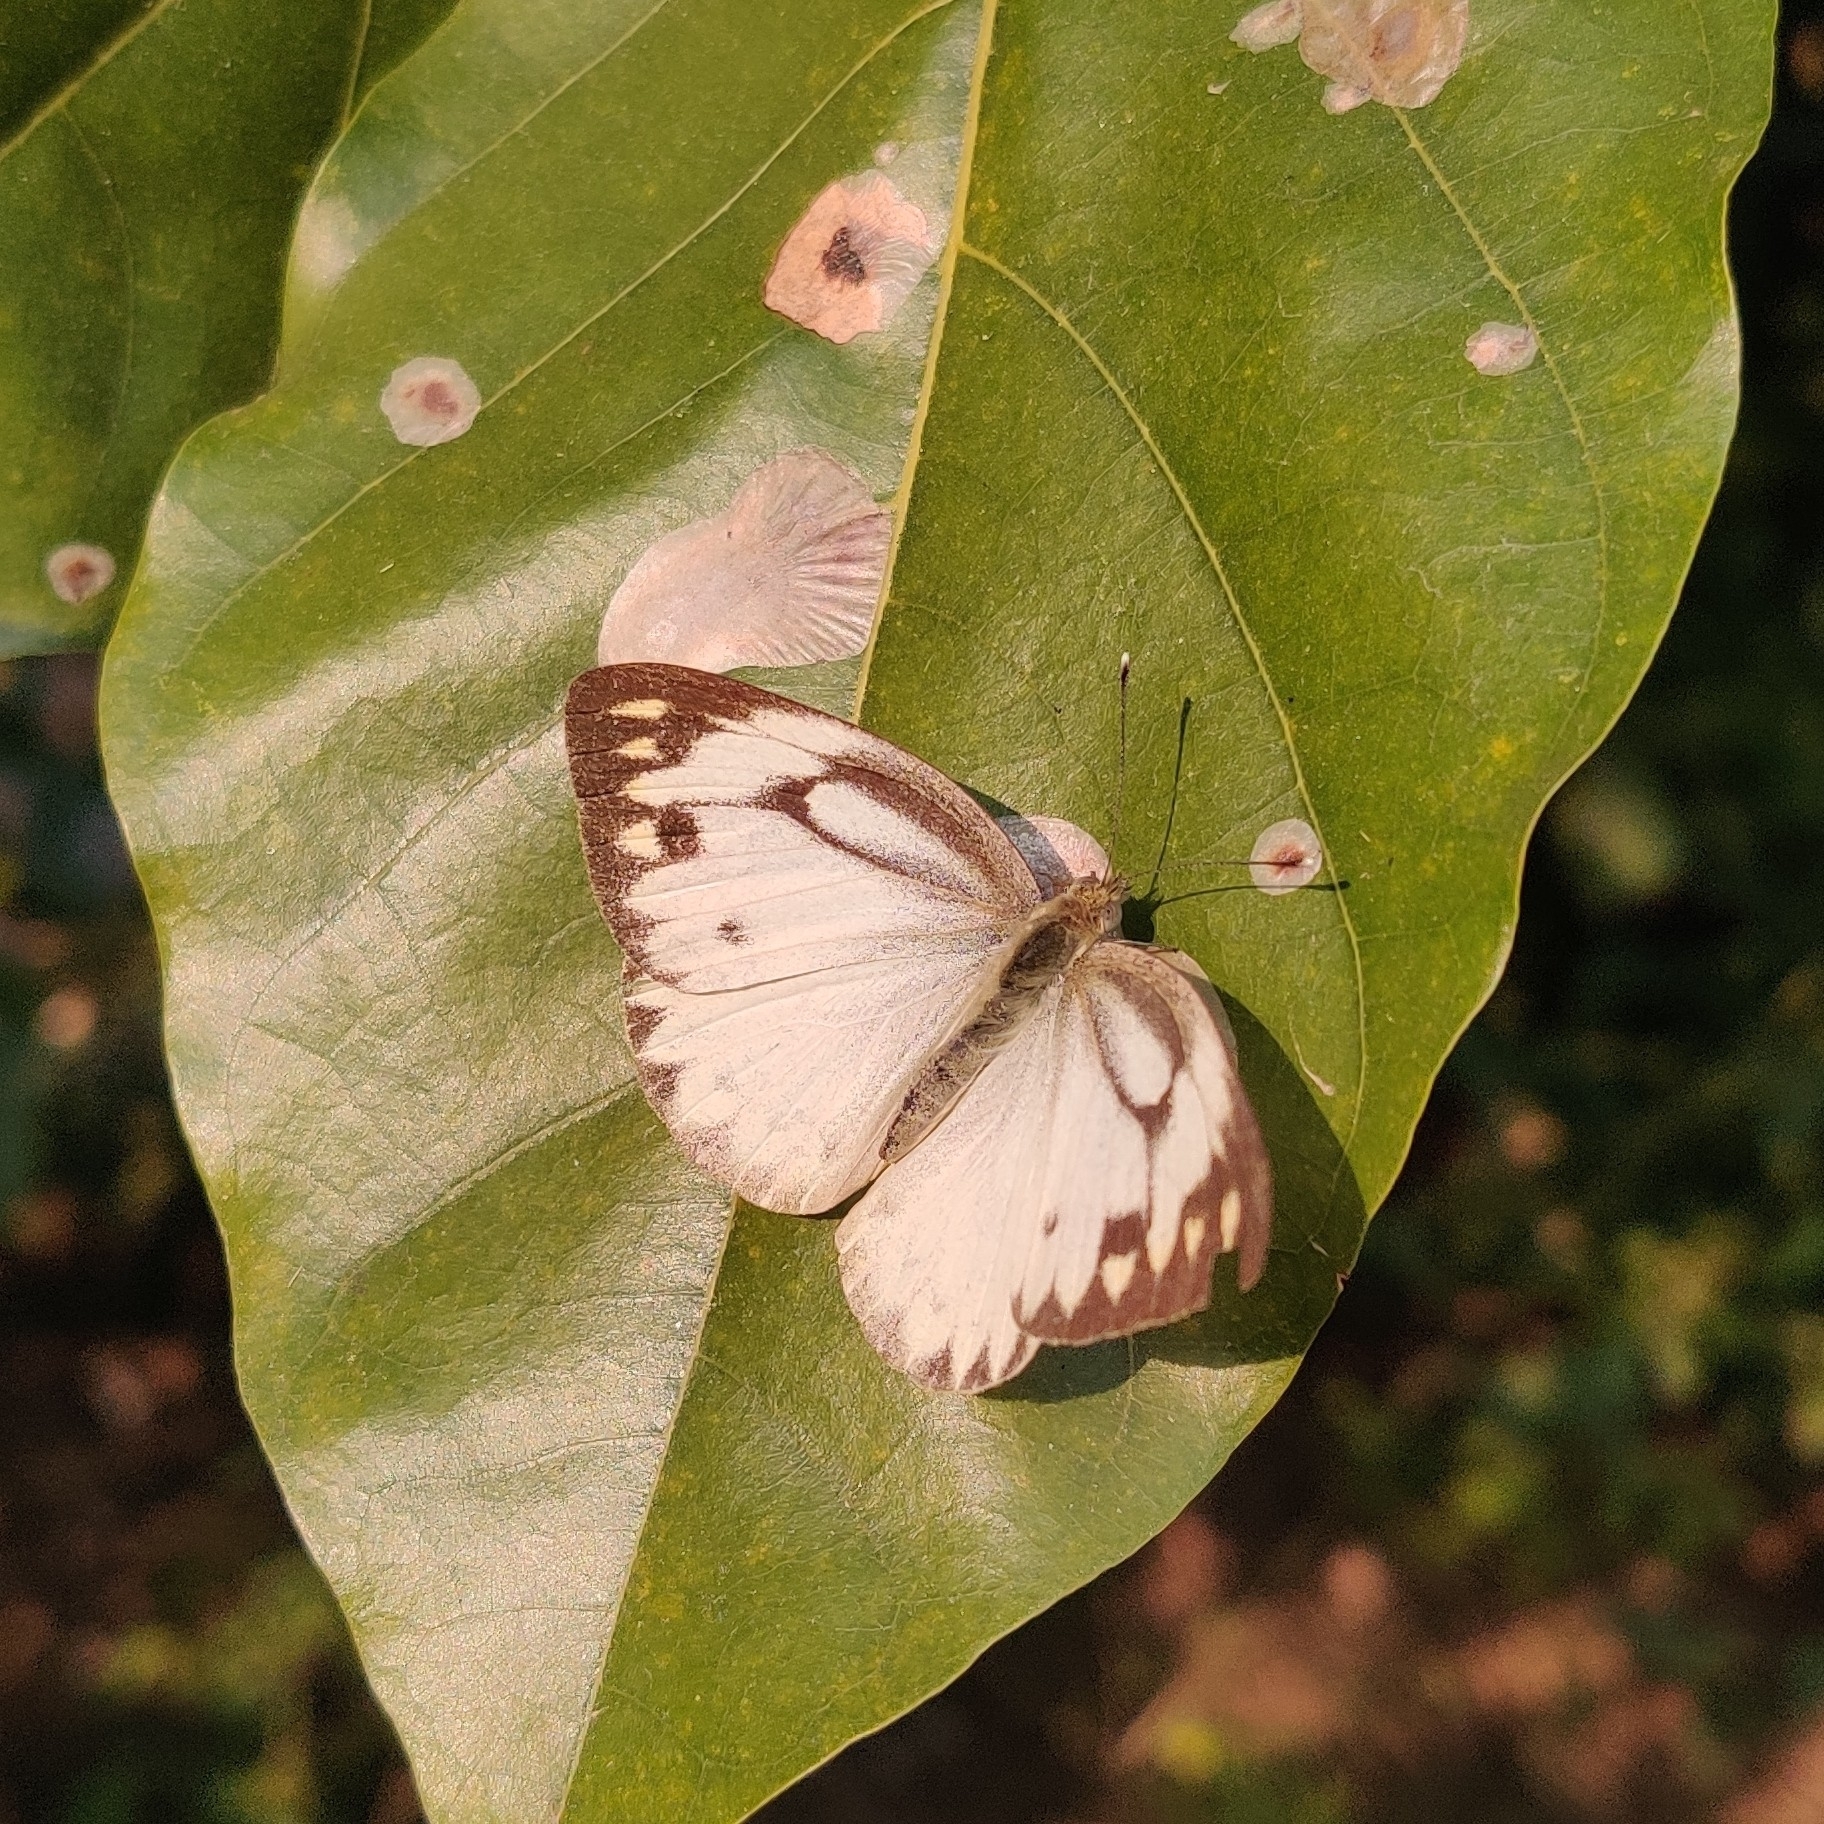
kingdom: Animalia
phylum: Arthropoda
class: Insecta
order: Lepidoptera
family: Pieridae
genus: Cepora
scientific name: Cepora nerissa
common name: Common gull
